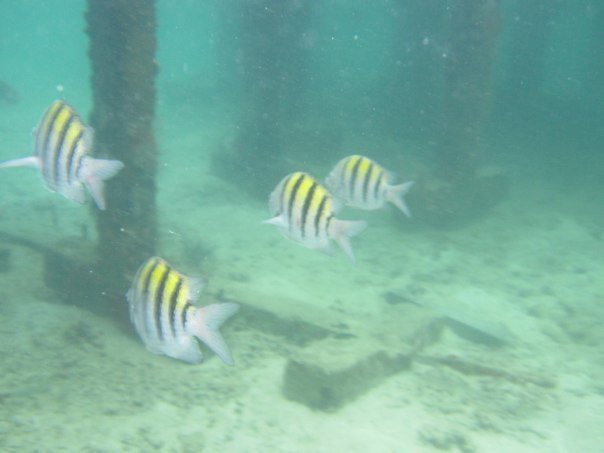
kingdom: Animalia
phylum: Chordata
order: Perciformes
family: Pomacentridae
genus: Abudefduf
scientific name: Abudefduf saxatilis
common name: Sergeant major
